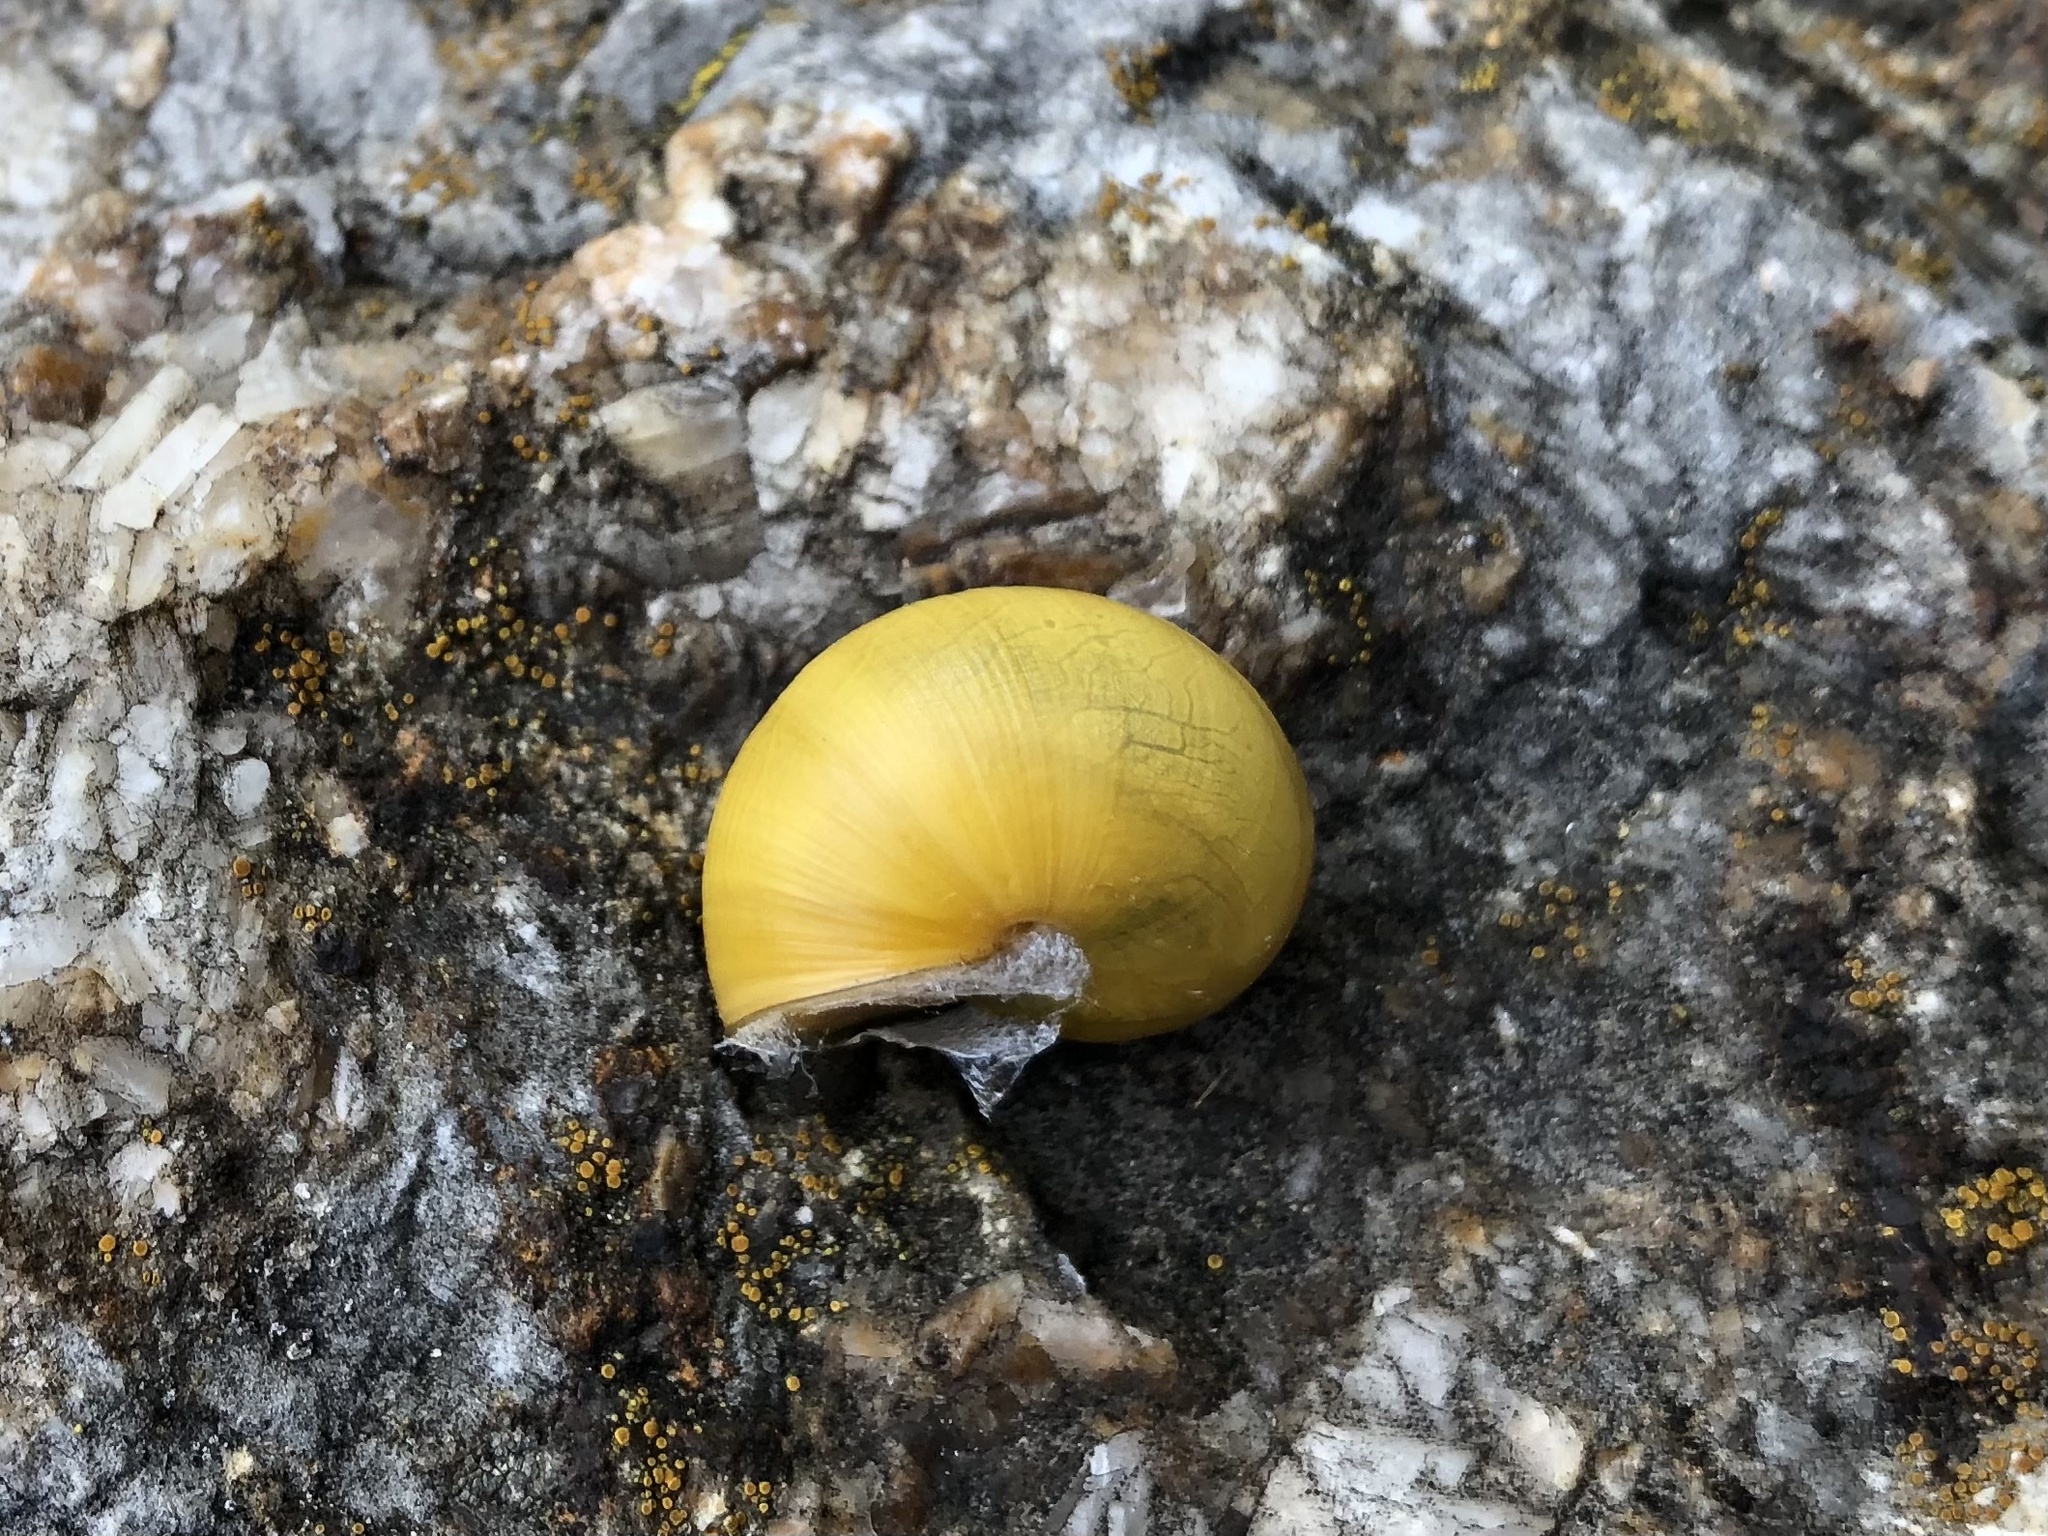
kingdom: Animalia
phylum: Mollusca
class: Gastropoda
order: Stylommatophora
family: Helicidae
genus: Cepaea
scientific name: Cepaea
